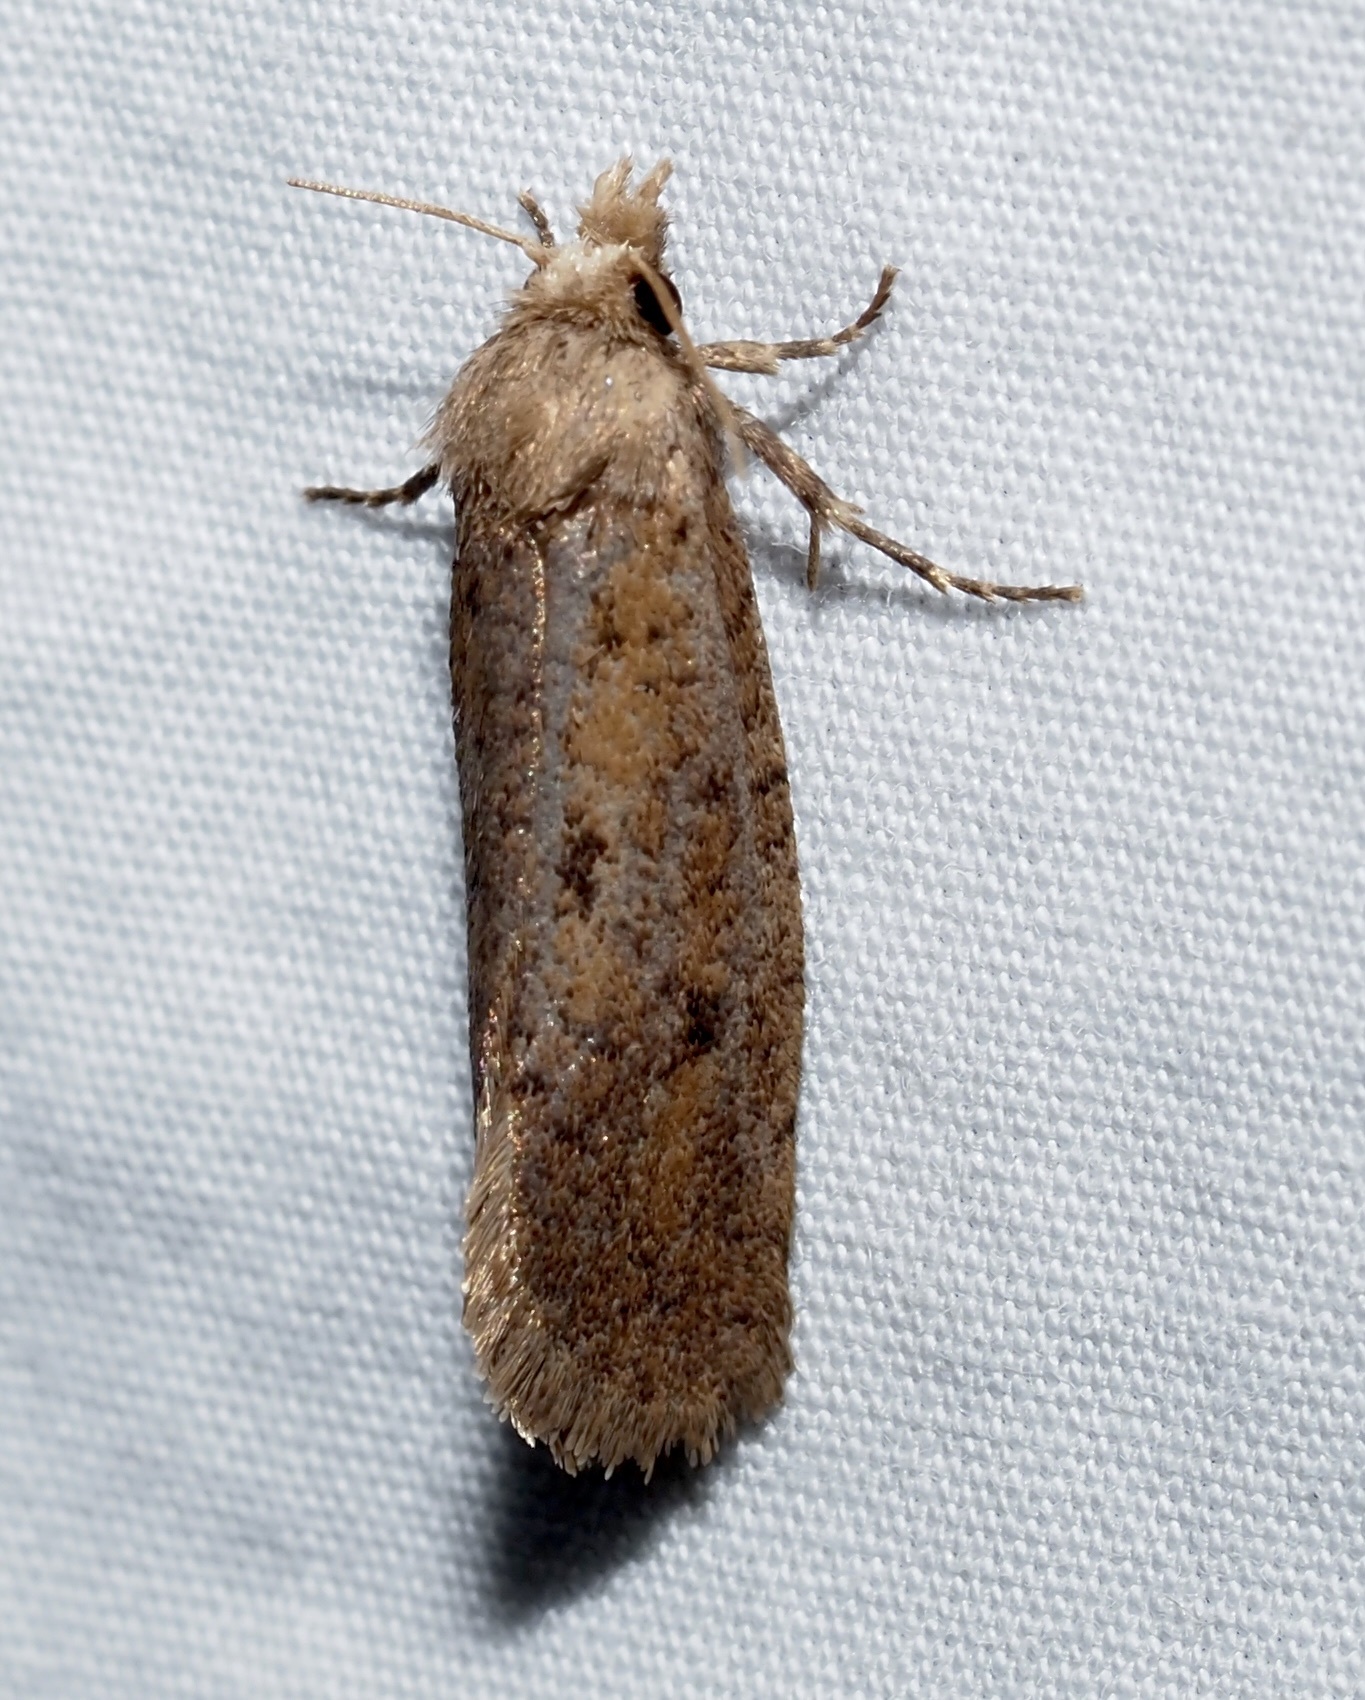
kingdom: Animalia
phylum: Arthropoda
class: Insecta
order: Lepidoptera
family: Tineidae
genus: Acrolophus
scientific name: Acrolophus popeanella
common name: Clemens' grass tubeworm moth
